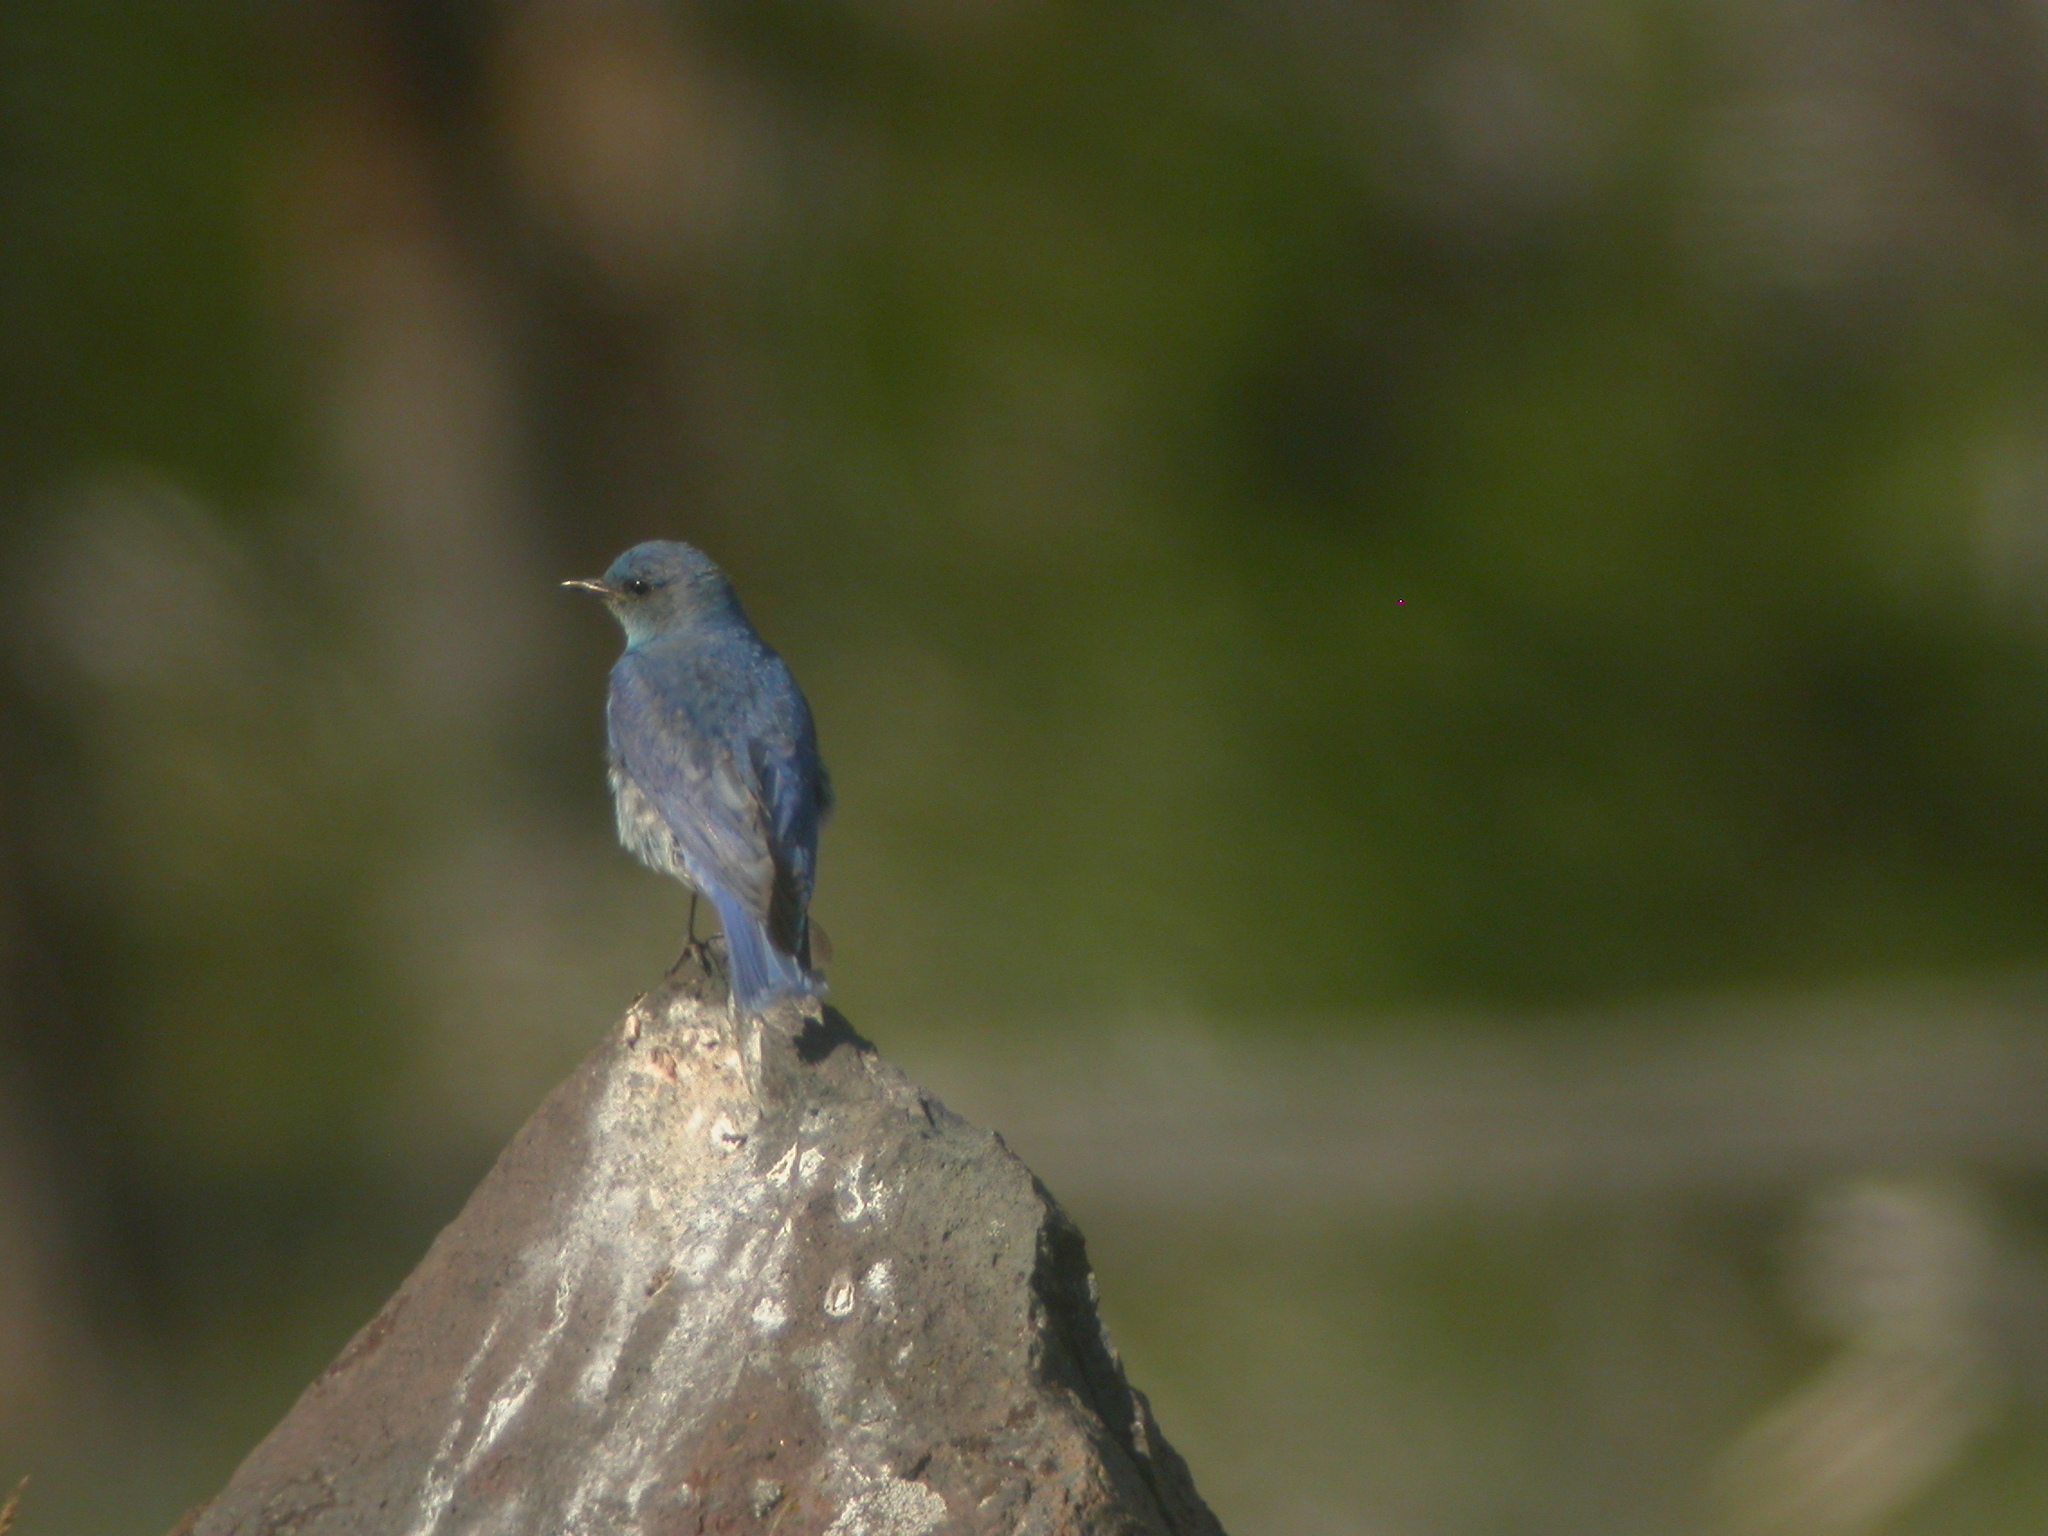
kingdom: Animalia
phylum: Chordata
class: Aves
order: Passeriformes
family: Turdidae
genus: Sialia
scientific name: Sialia currucoides
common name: Mountain bluebird
